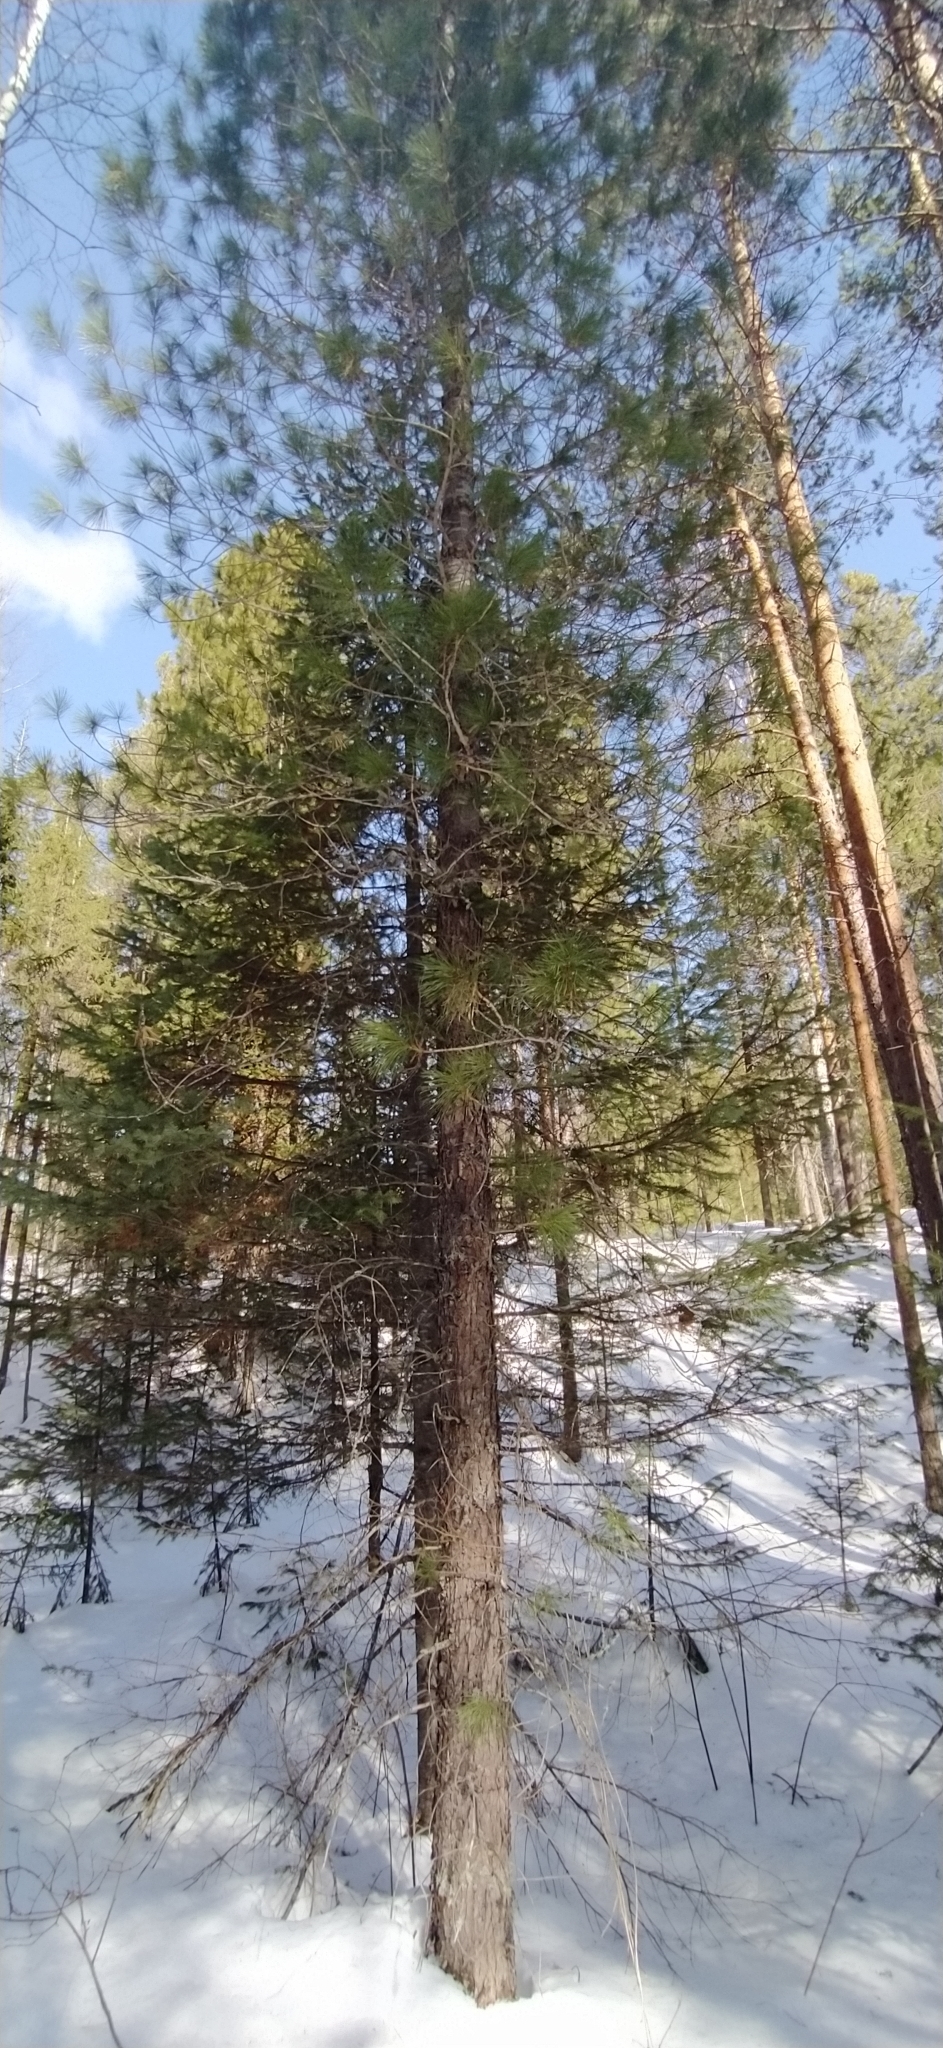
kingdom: Plantae
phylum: Tracheophyta
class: Pinopsida
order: Pinales
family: Pinaceae
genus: Pinus
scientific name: Pinus sibirica
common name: Siberian pine
